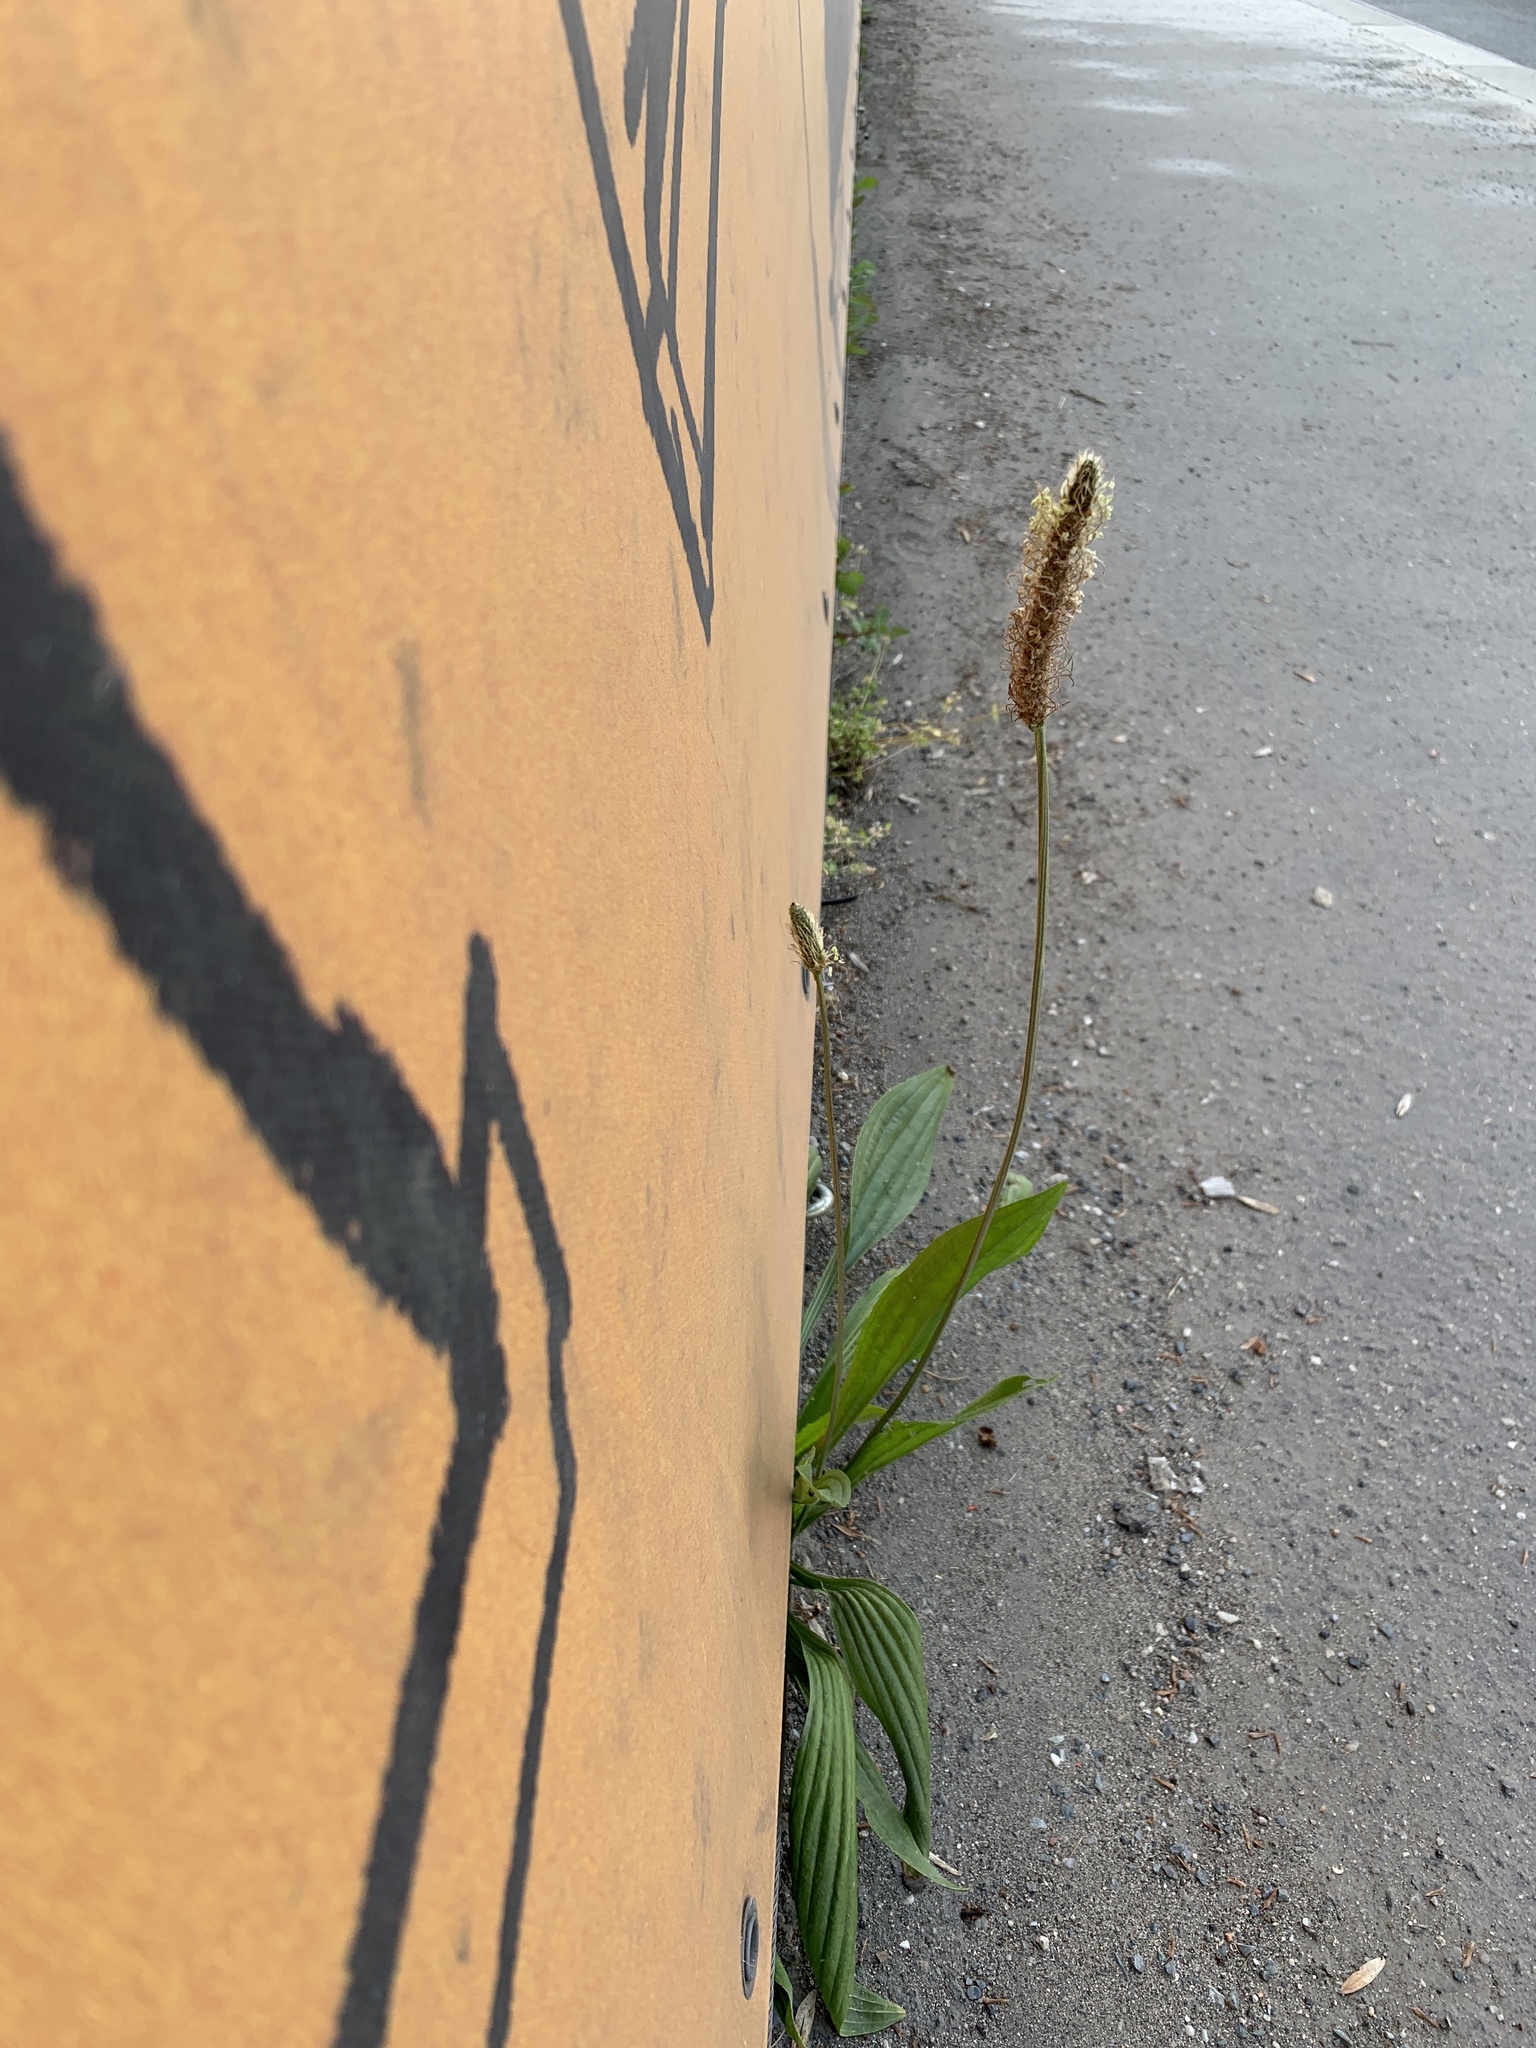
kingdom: Plantae
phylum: Tracheophyta
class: Magnoliopsida
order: Lamiales
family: Plantaginaceae
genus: Plantago
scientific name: Plantago lanceolata
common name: Ribwort plantain
